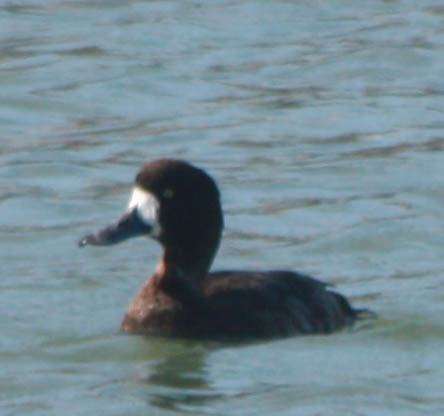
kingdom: Animalia
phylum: Chordata
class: Aves
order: Anseriformes
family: Anatidae
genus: Aythya
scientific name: Aythya marila
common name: Greater scaup
